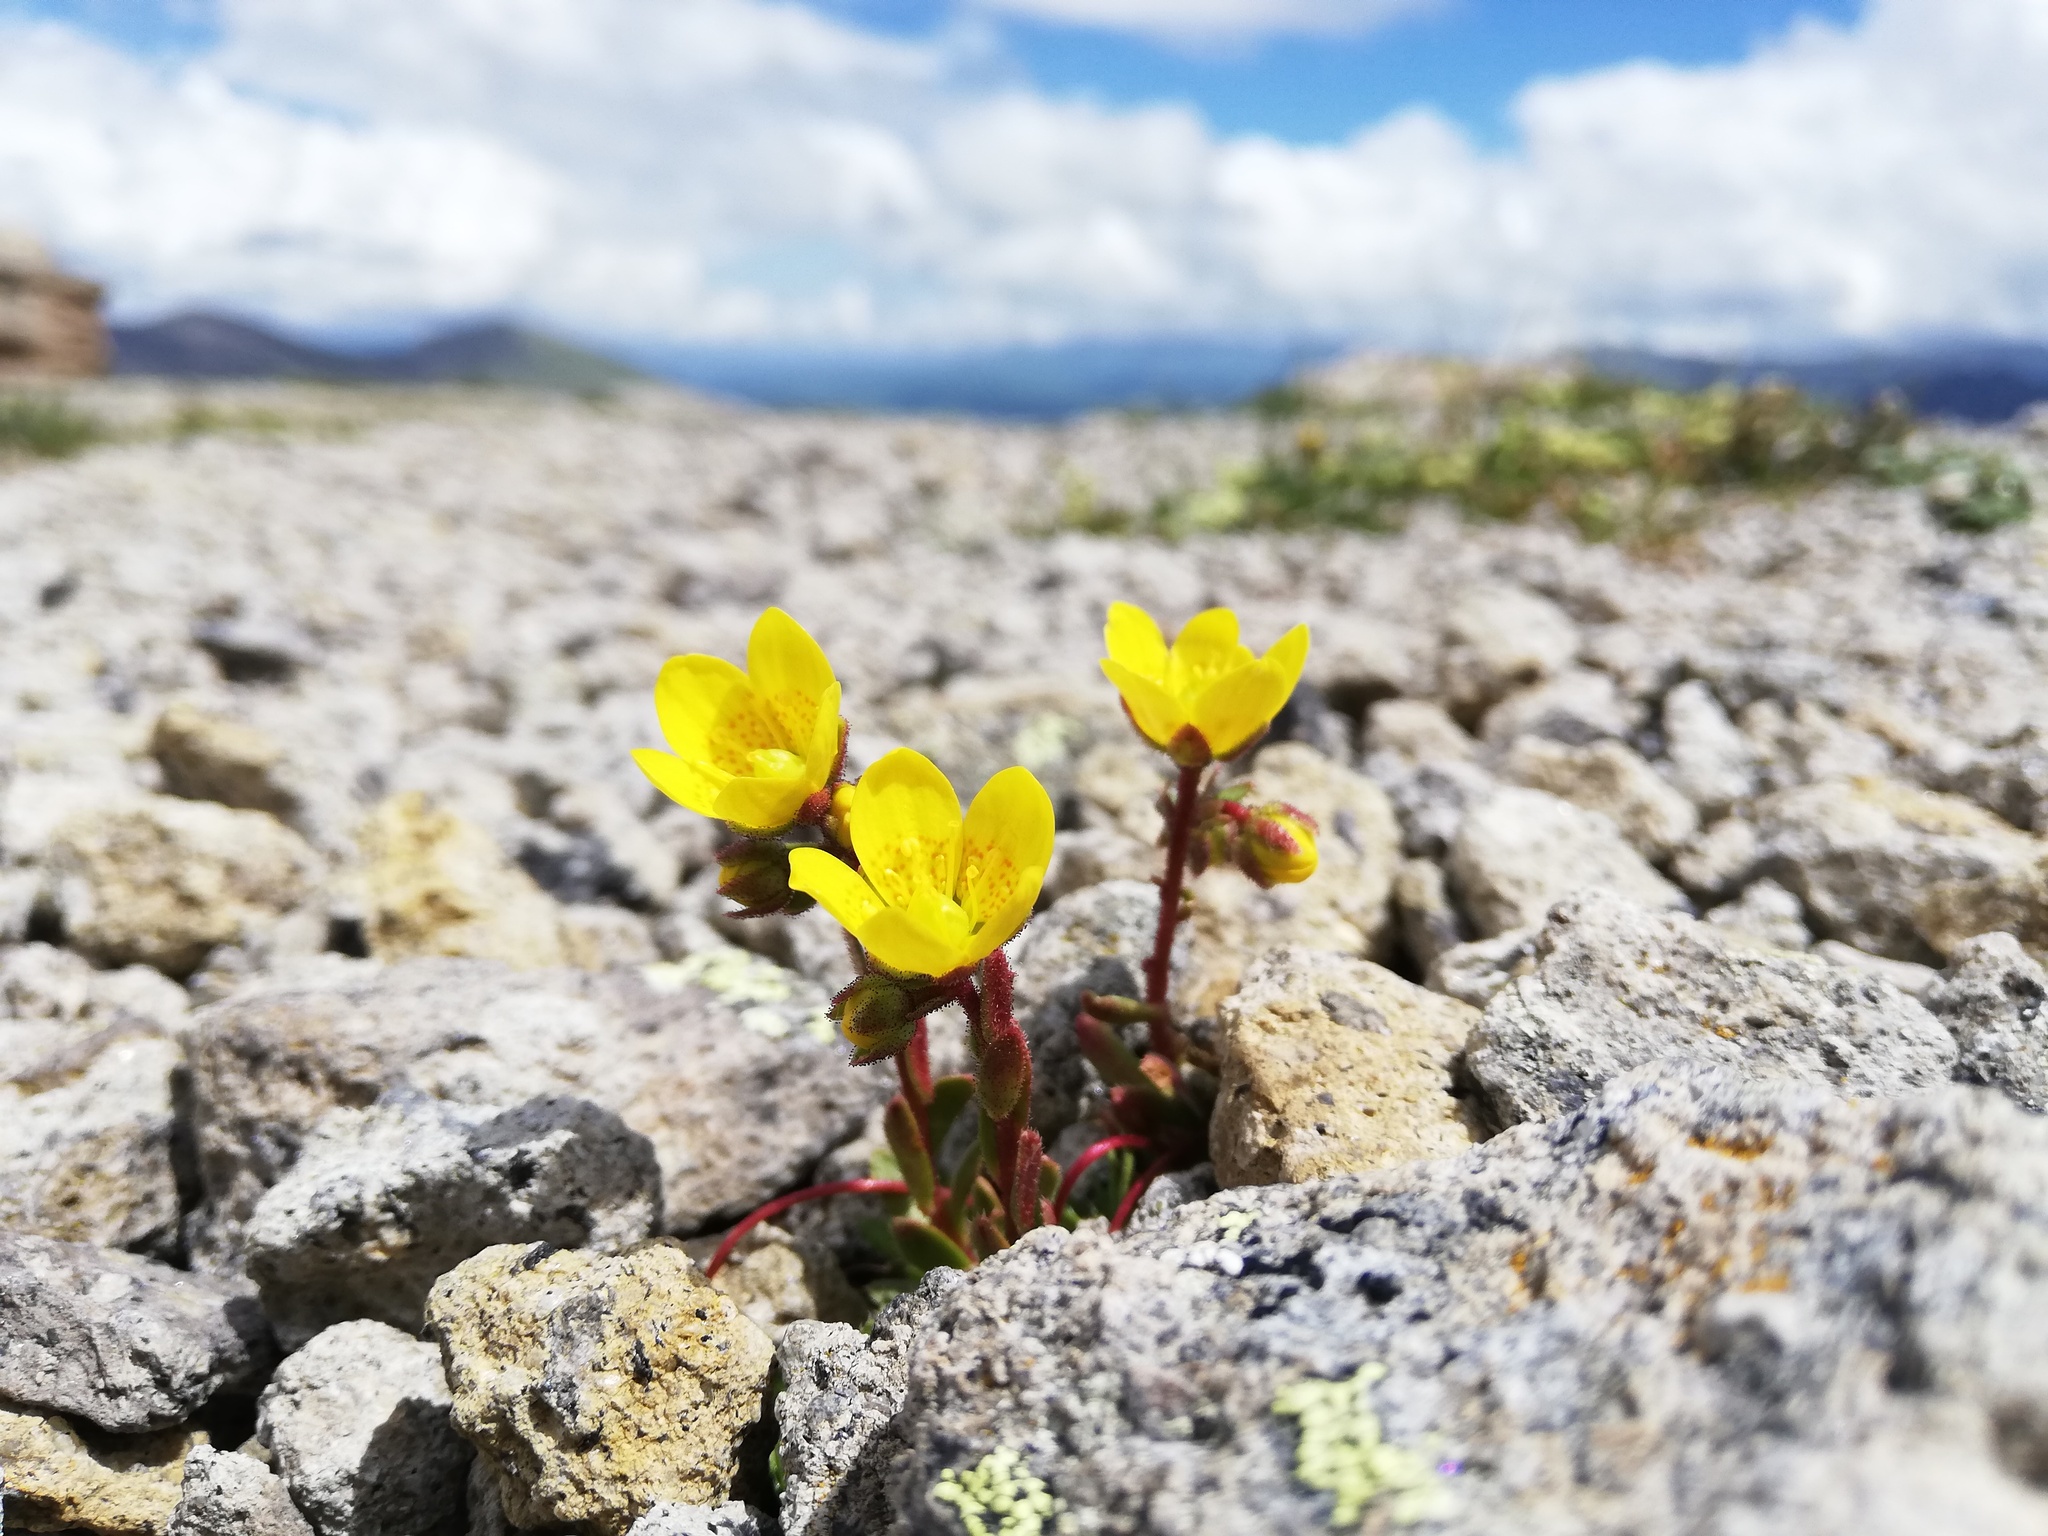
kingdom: Plantae
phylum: Tracheophyta
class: Magnoliopsida
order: Saxifragales
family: Saxifragaceae
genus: Saxifraga
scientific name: Saxifraga flagellaris
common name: Spider saxifrage
